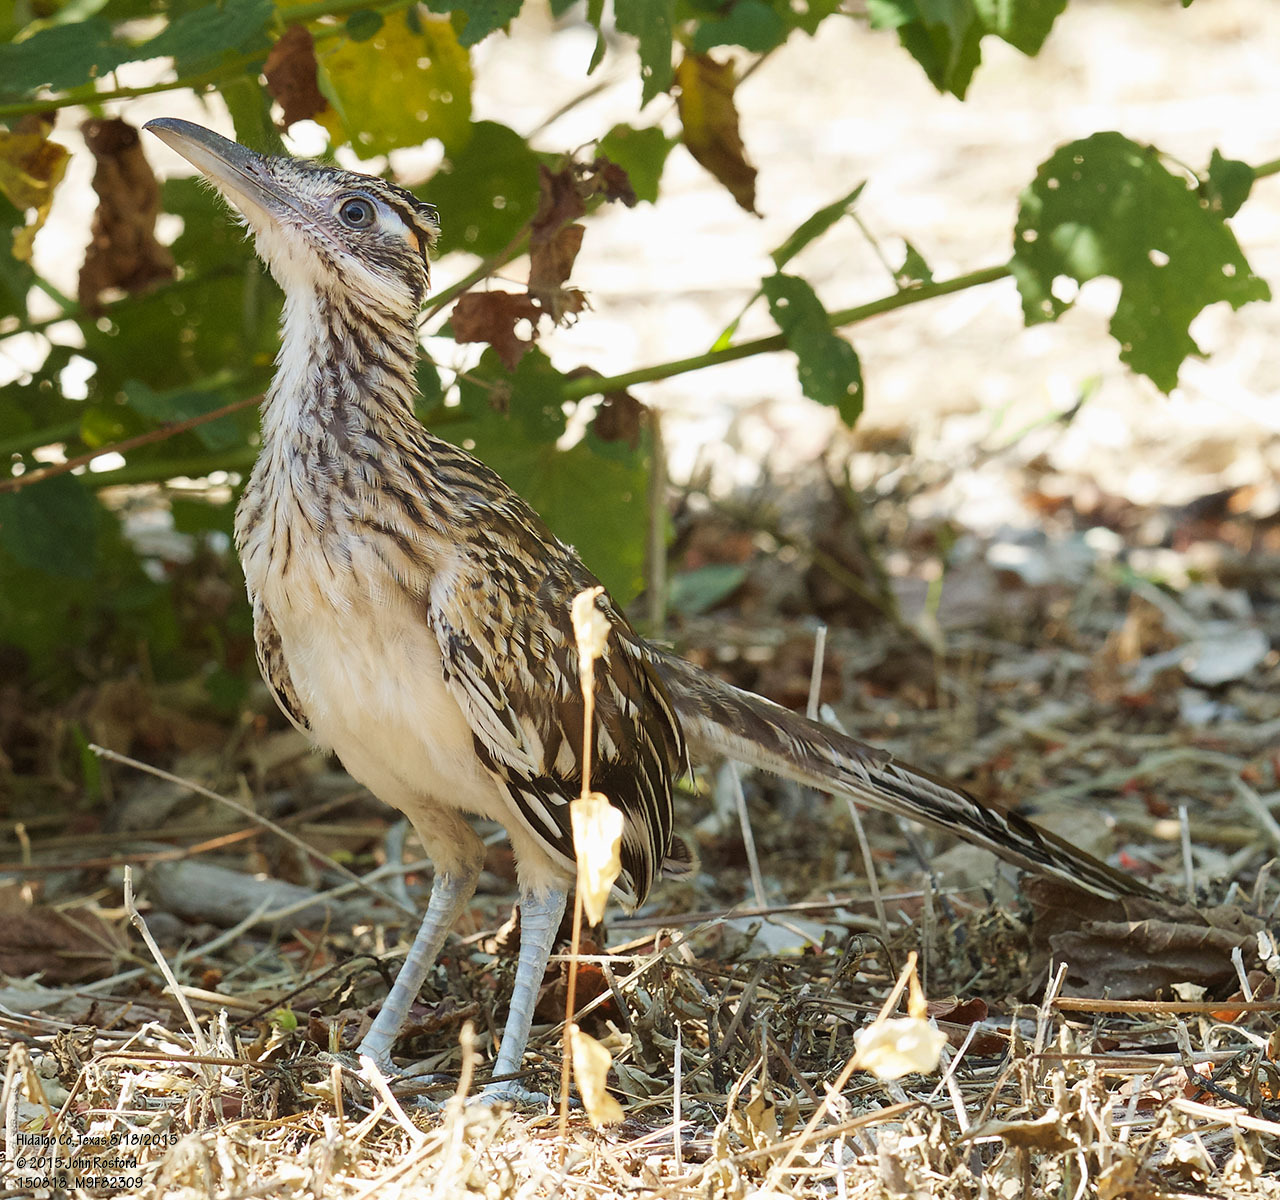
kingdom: Animalia
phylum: Chordata
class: Aves
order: Cuculiformes
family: Cuculidae
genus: Geococcyx
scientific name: Geococcyx californianus
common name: Greater roadrunner
